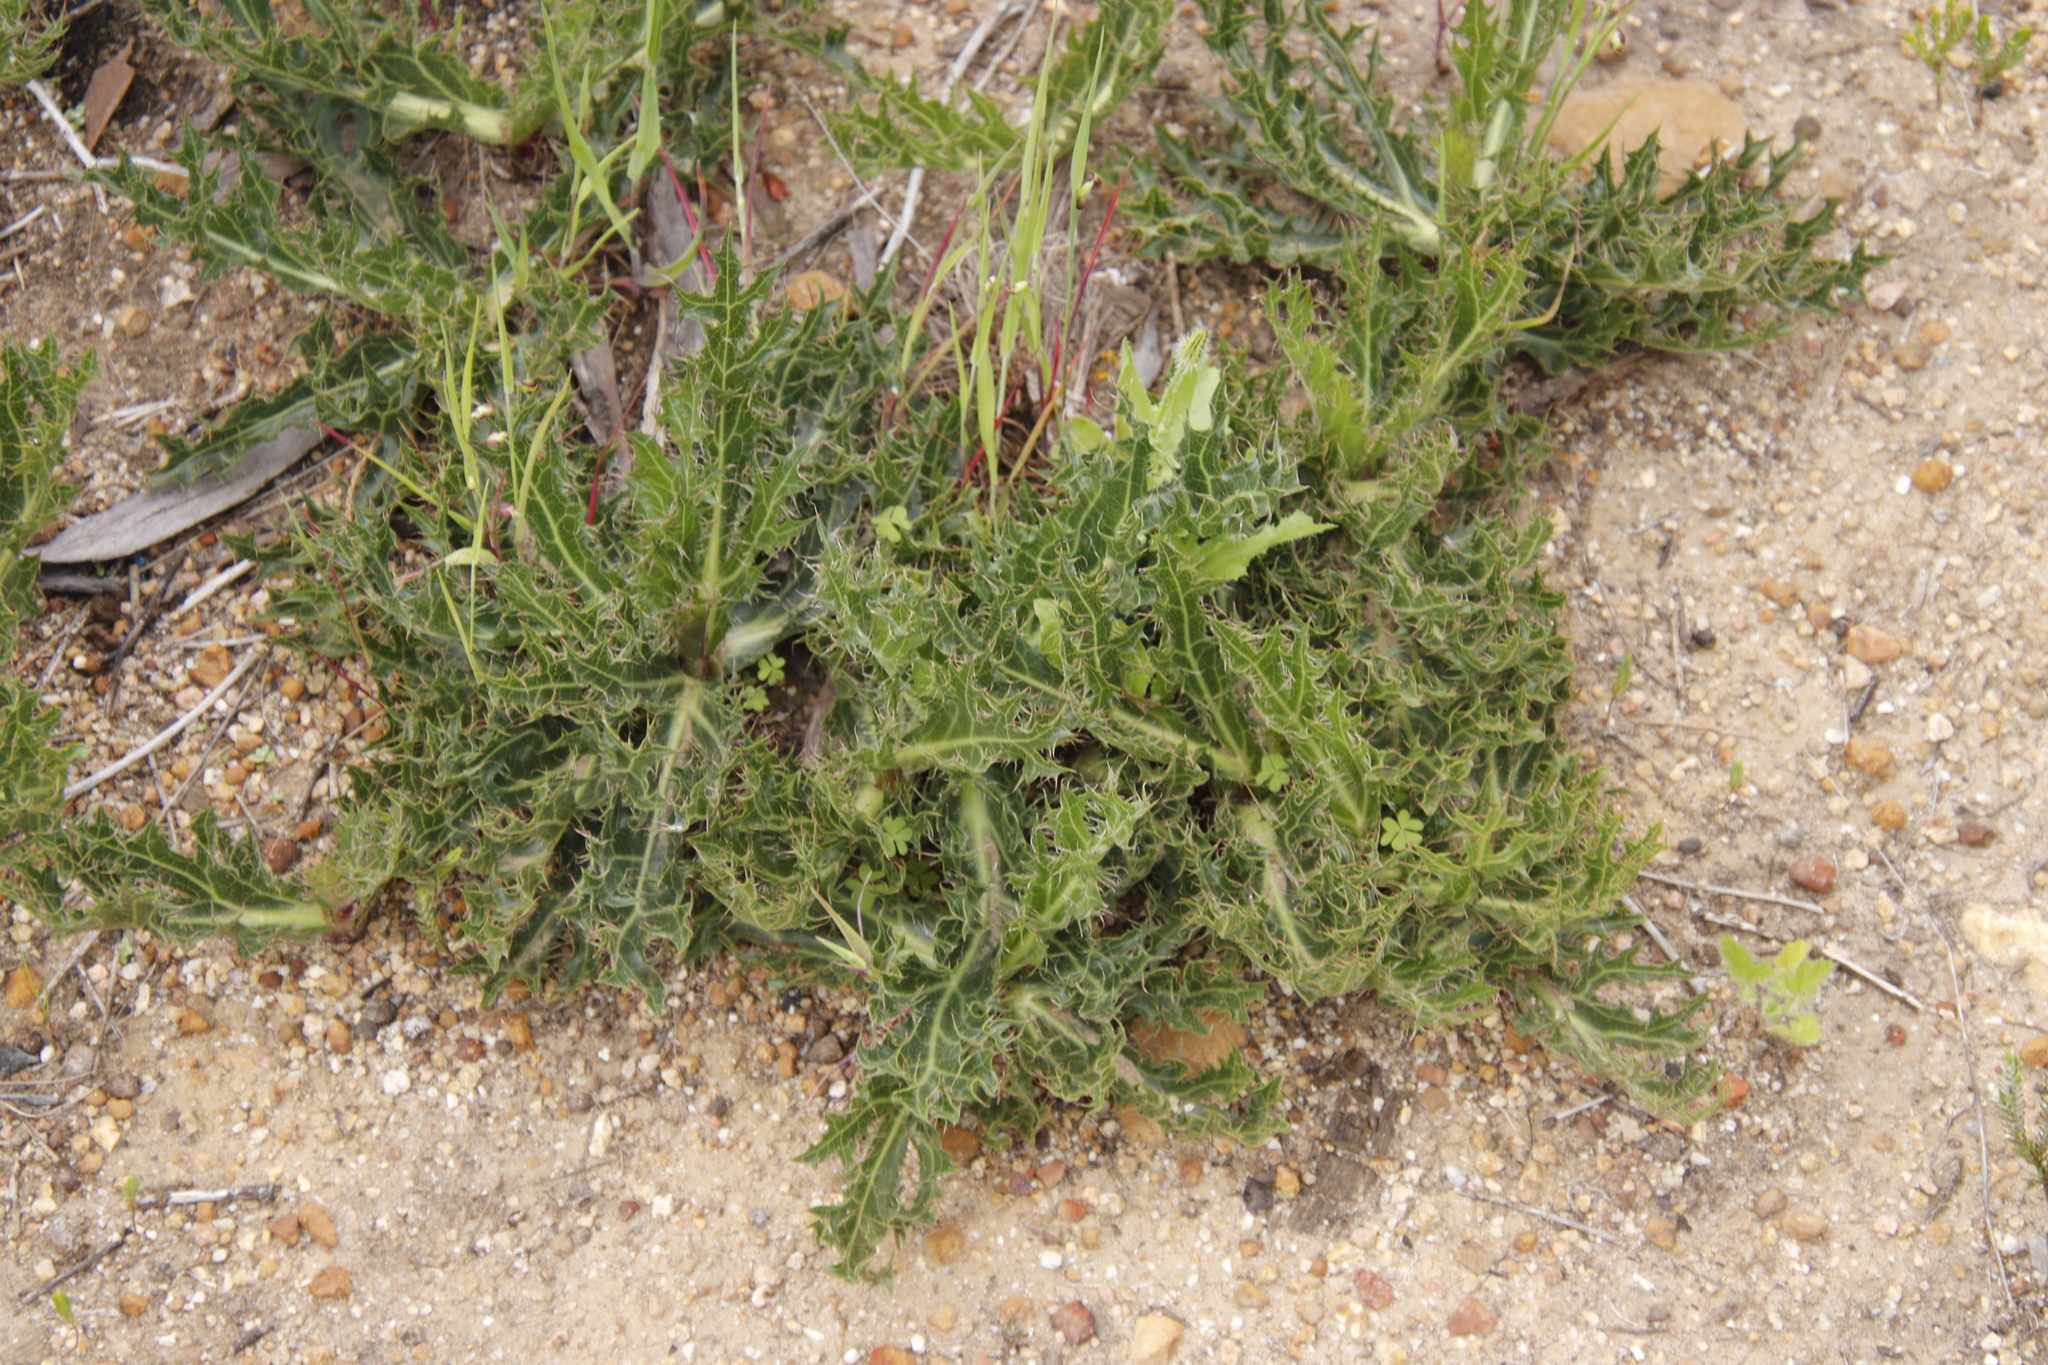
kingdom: Plantae
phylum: Tracheophyta
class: Magnoliopsida
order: Apiales
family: Apiaceae
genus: Lichtensteinia
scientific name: Lichtensteinia lacera
